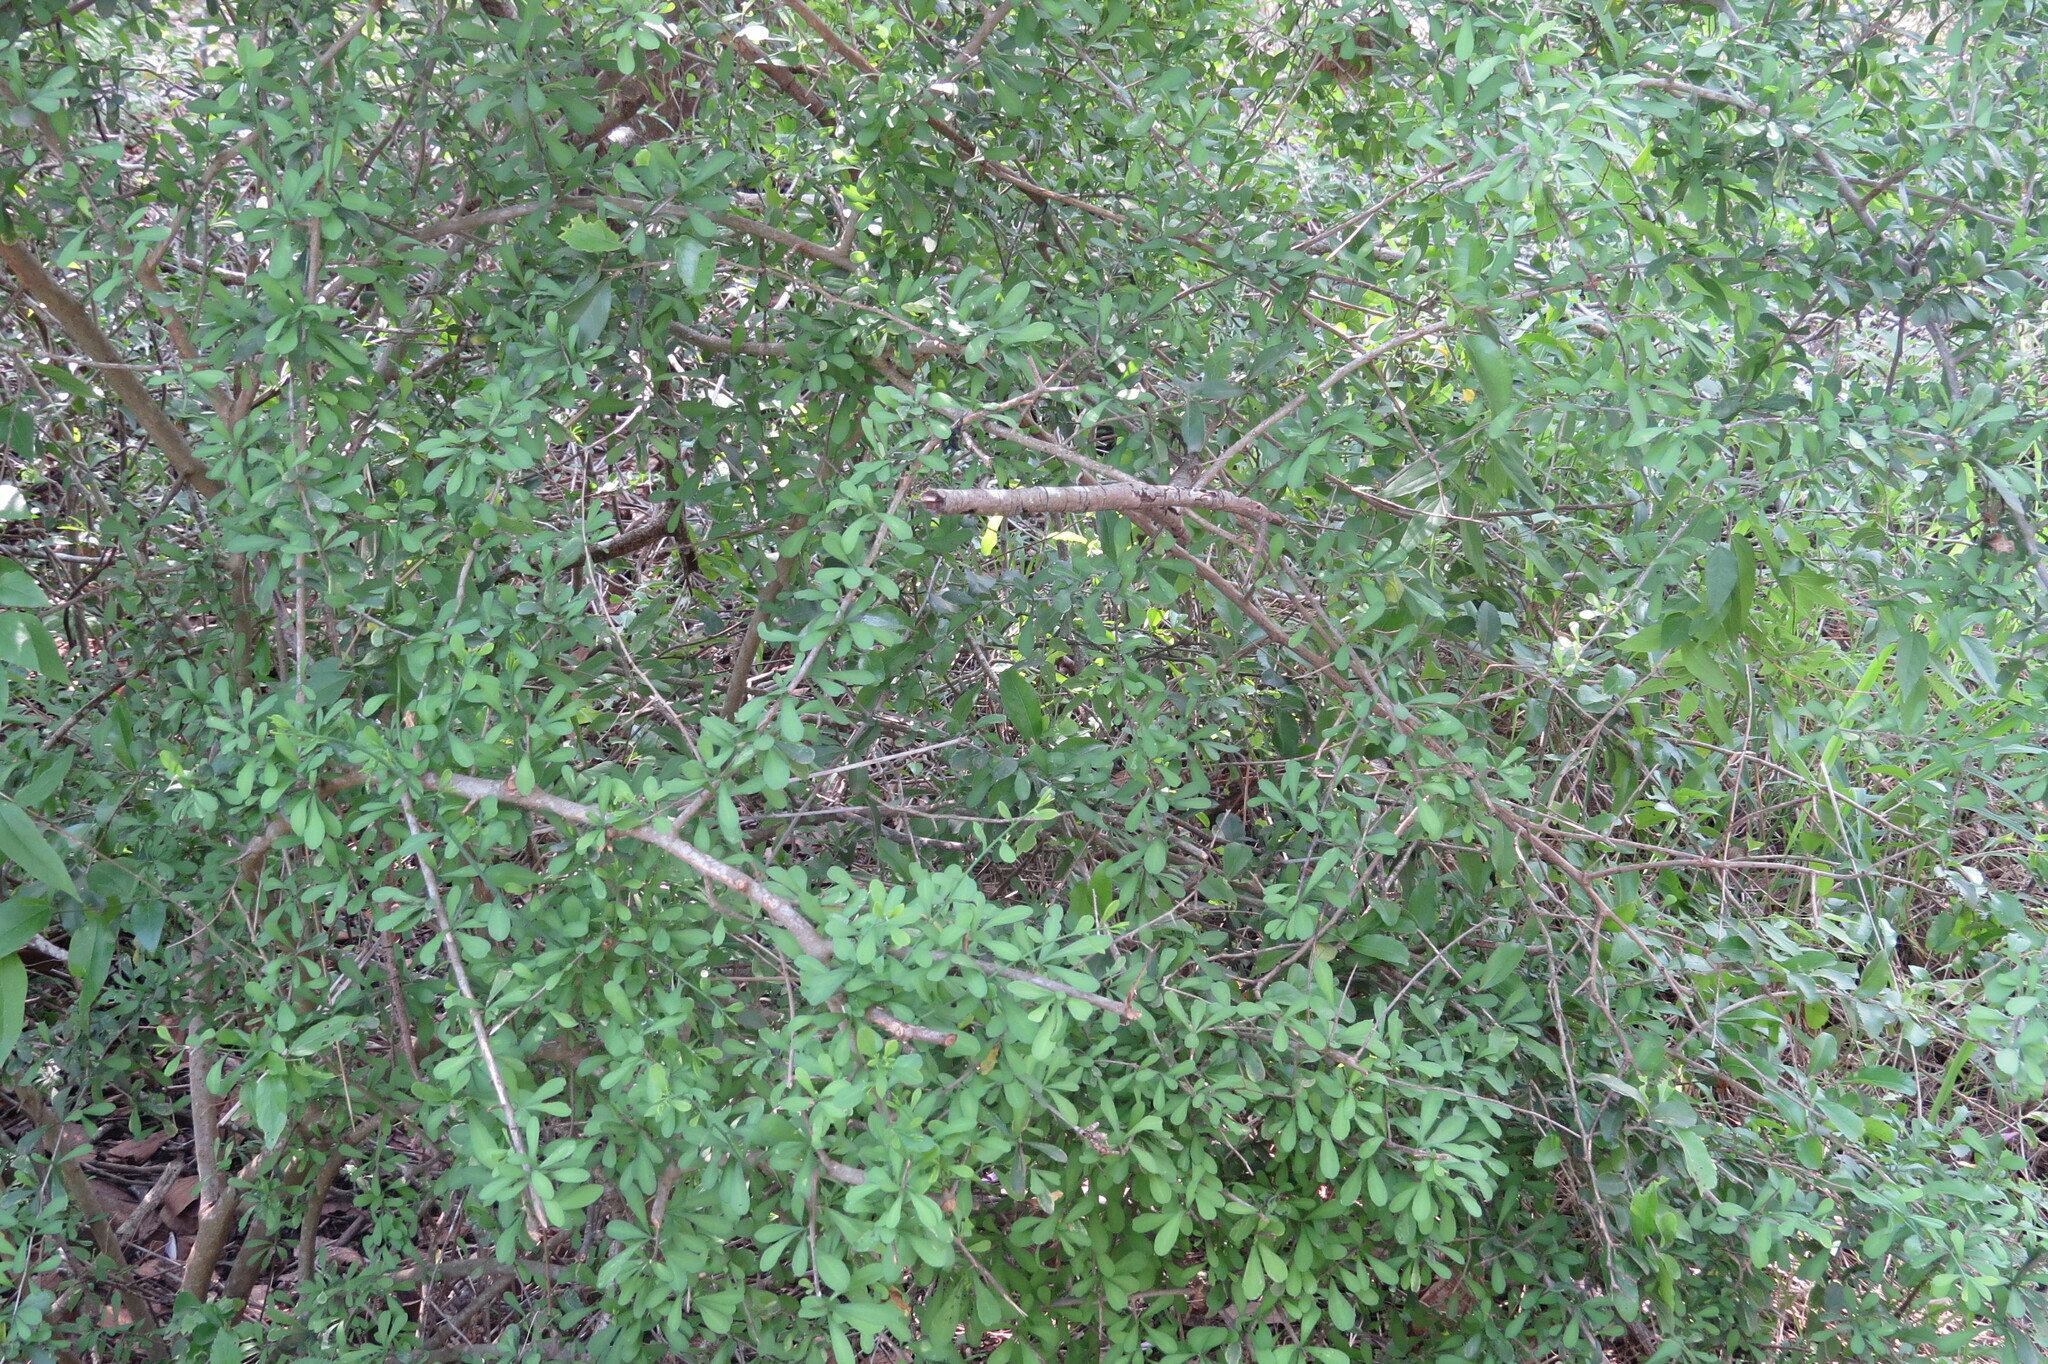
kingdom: Plantae
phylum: Tracheophyta
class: Magnoliopsida
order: Caryophyllales
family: Achatocarpaceae
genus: Phaulothamnus
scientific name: Phaulothamnus spinescens
